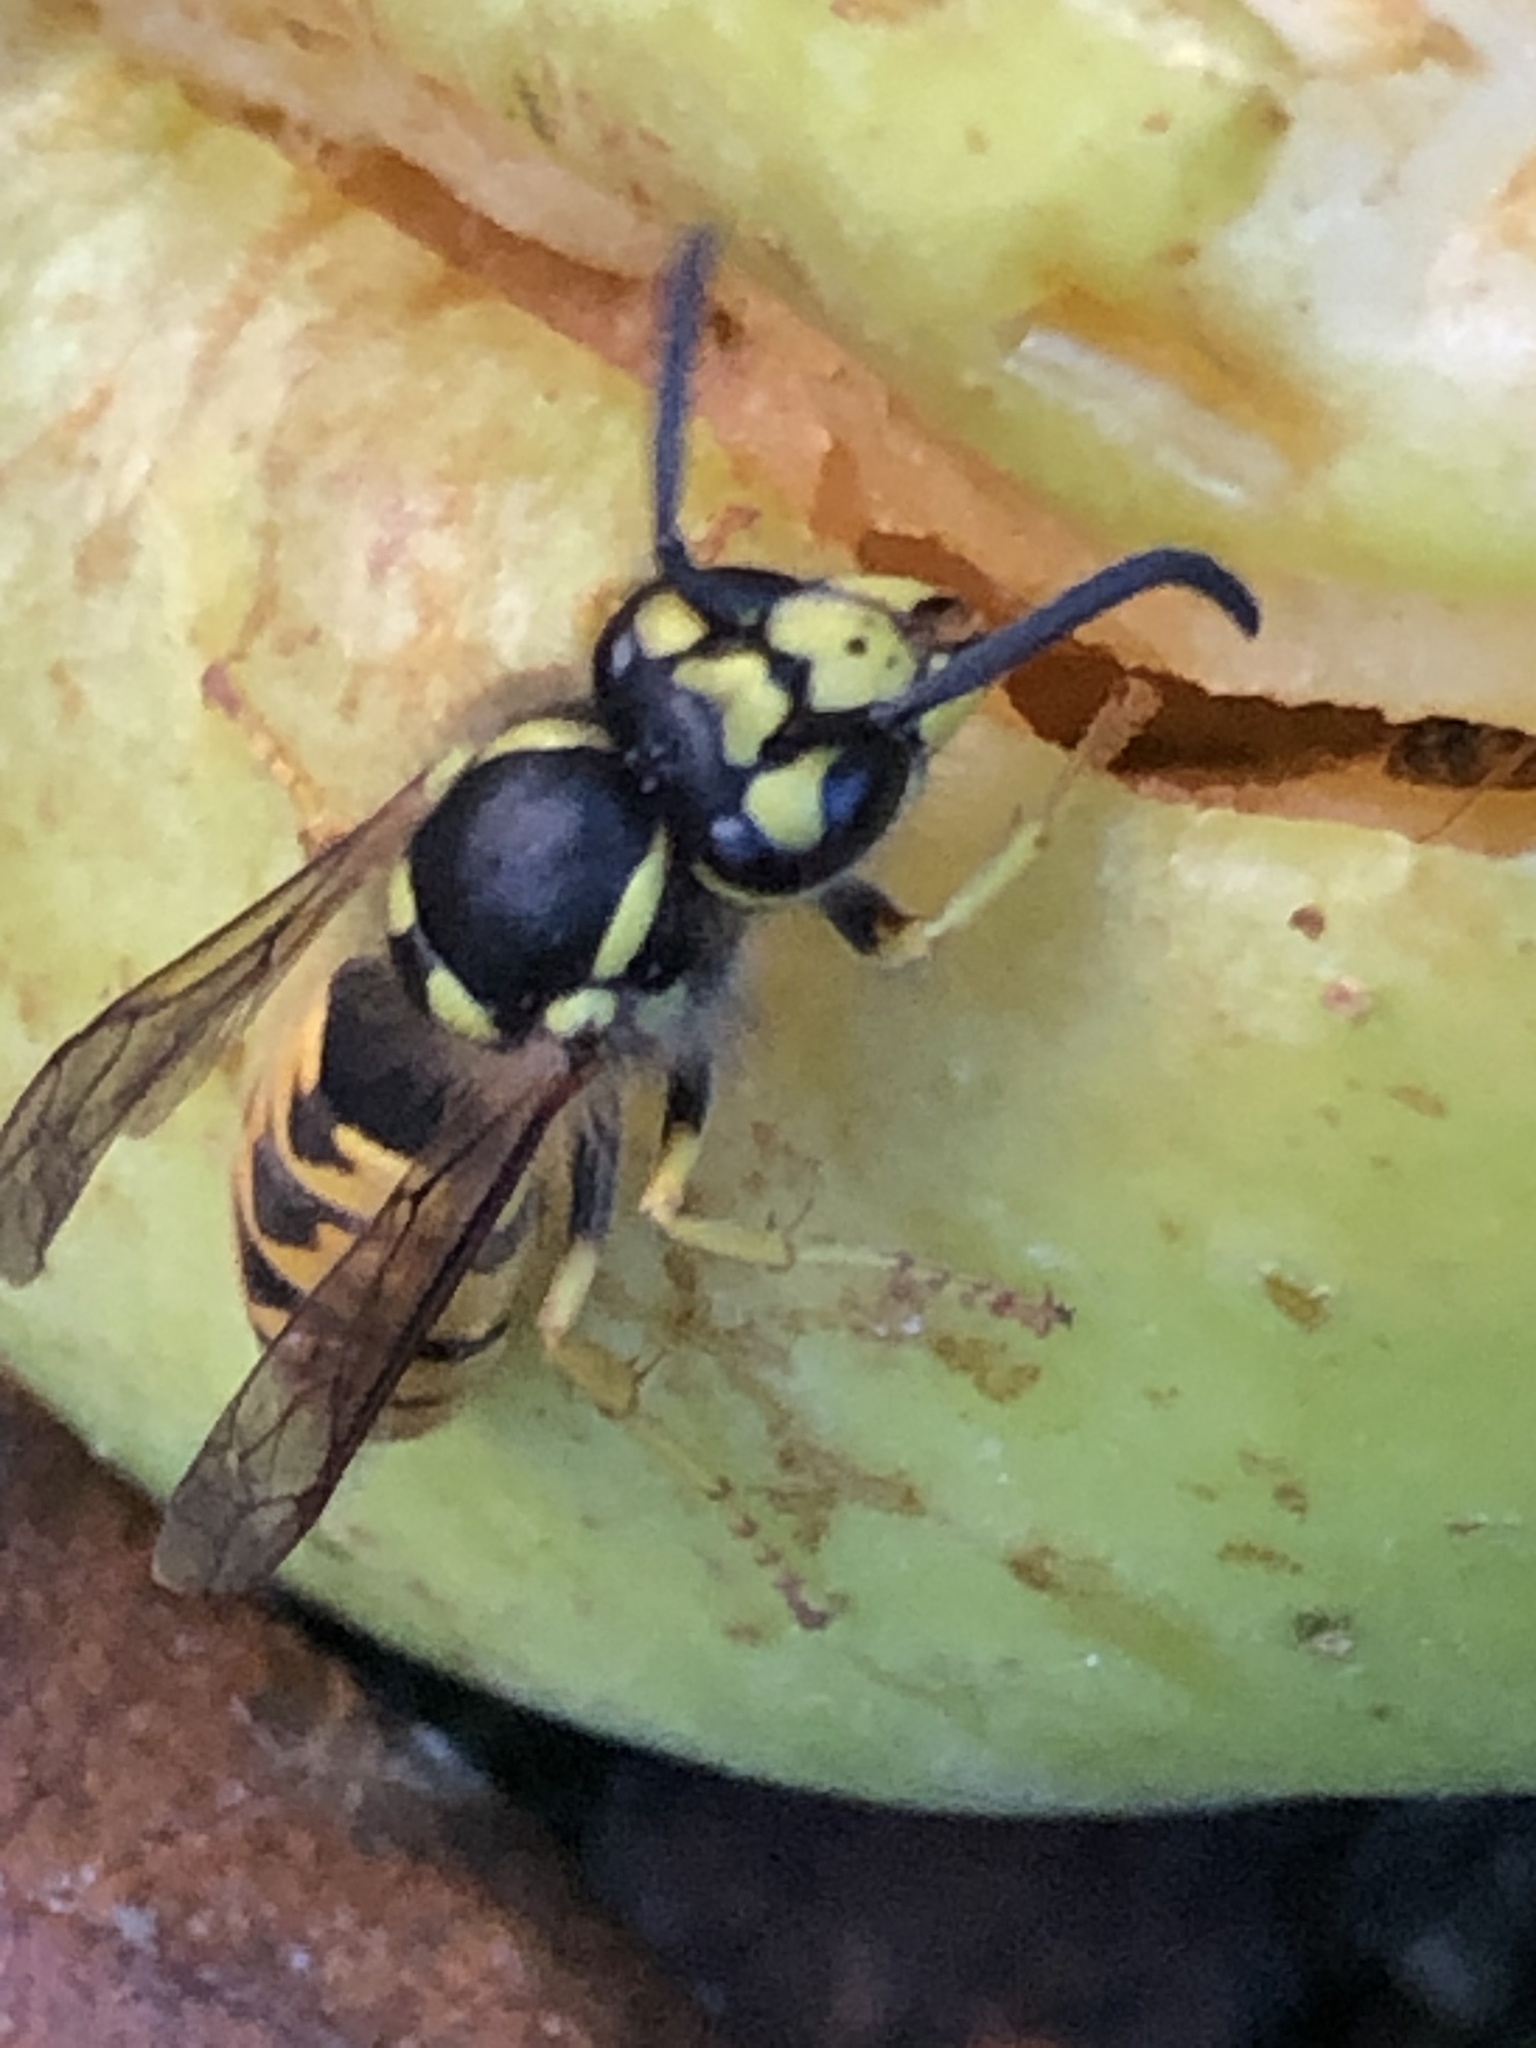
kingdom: Animalia
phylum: Arthropoda
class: Insecta
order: Hymenoptera
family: Vespidae
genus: Vespula
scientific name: Vespula germanica
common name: German wasp
